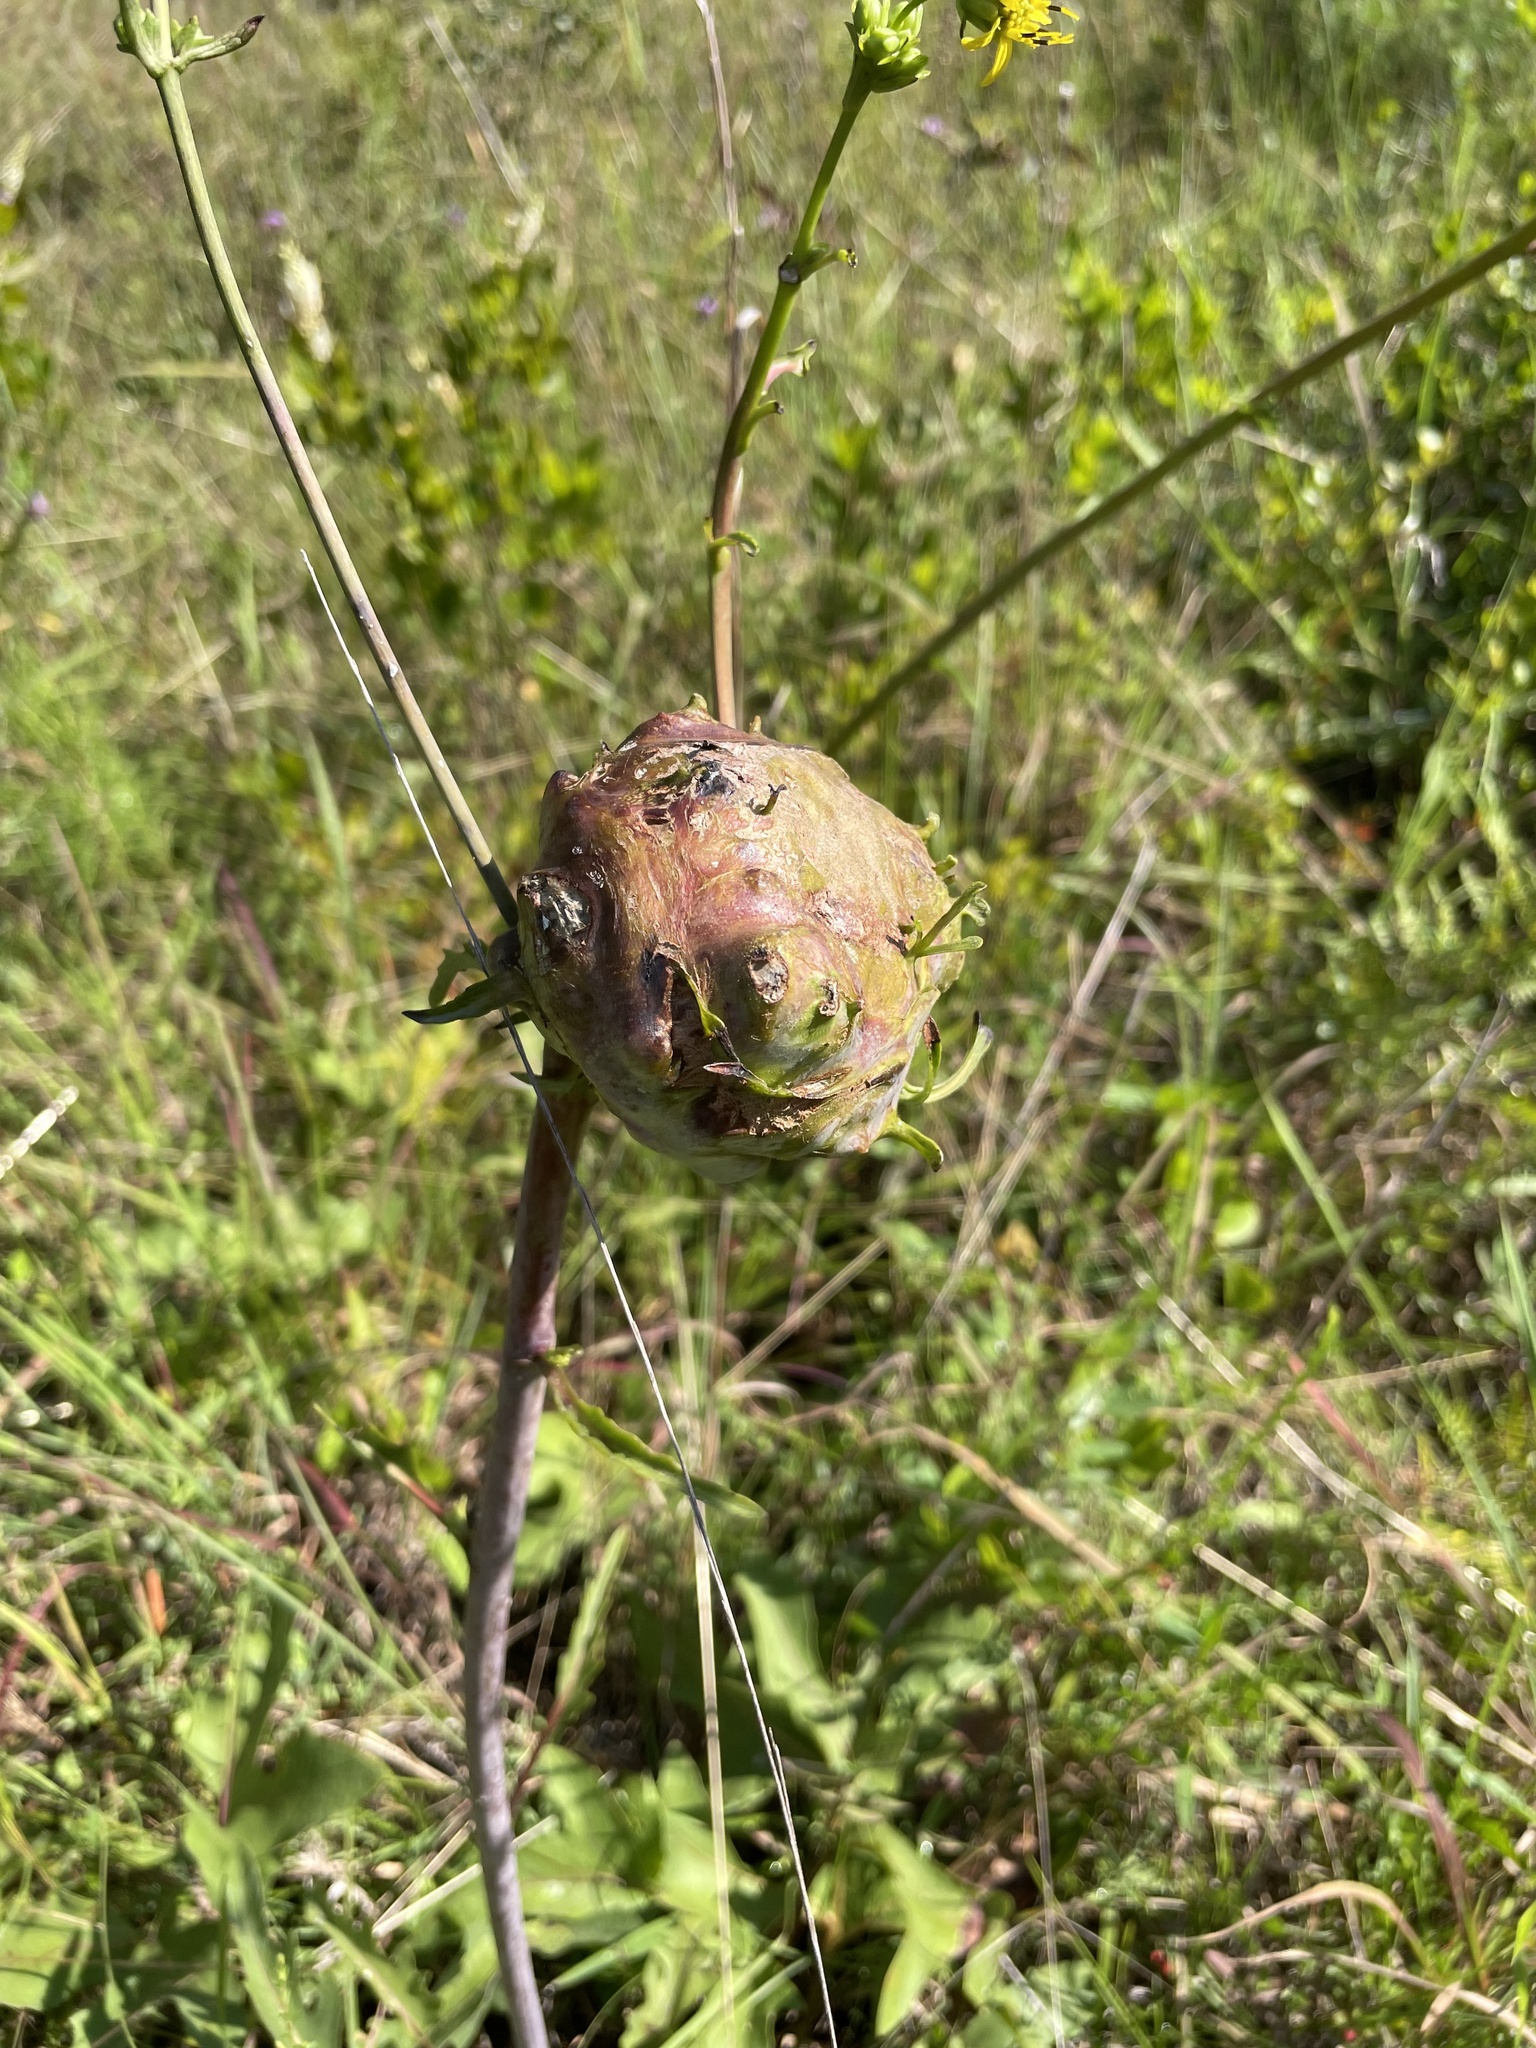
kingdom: Animalia
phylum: Arthropoda
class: Insecta
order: Hymenoptera
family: Cynipidae
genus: Antistrophus
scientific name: Antistrophus silphii
